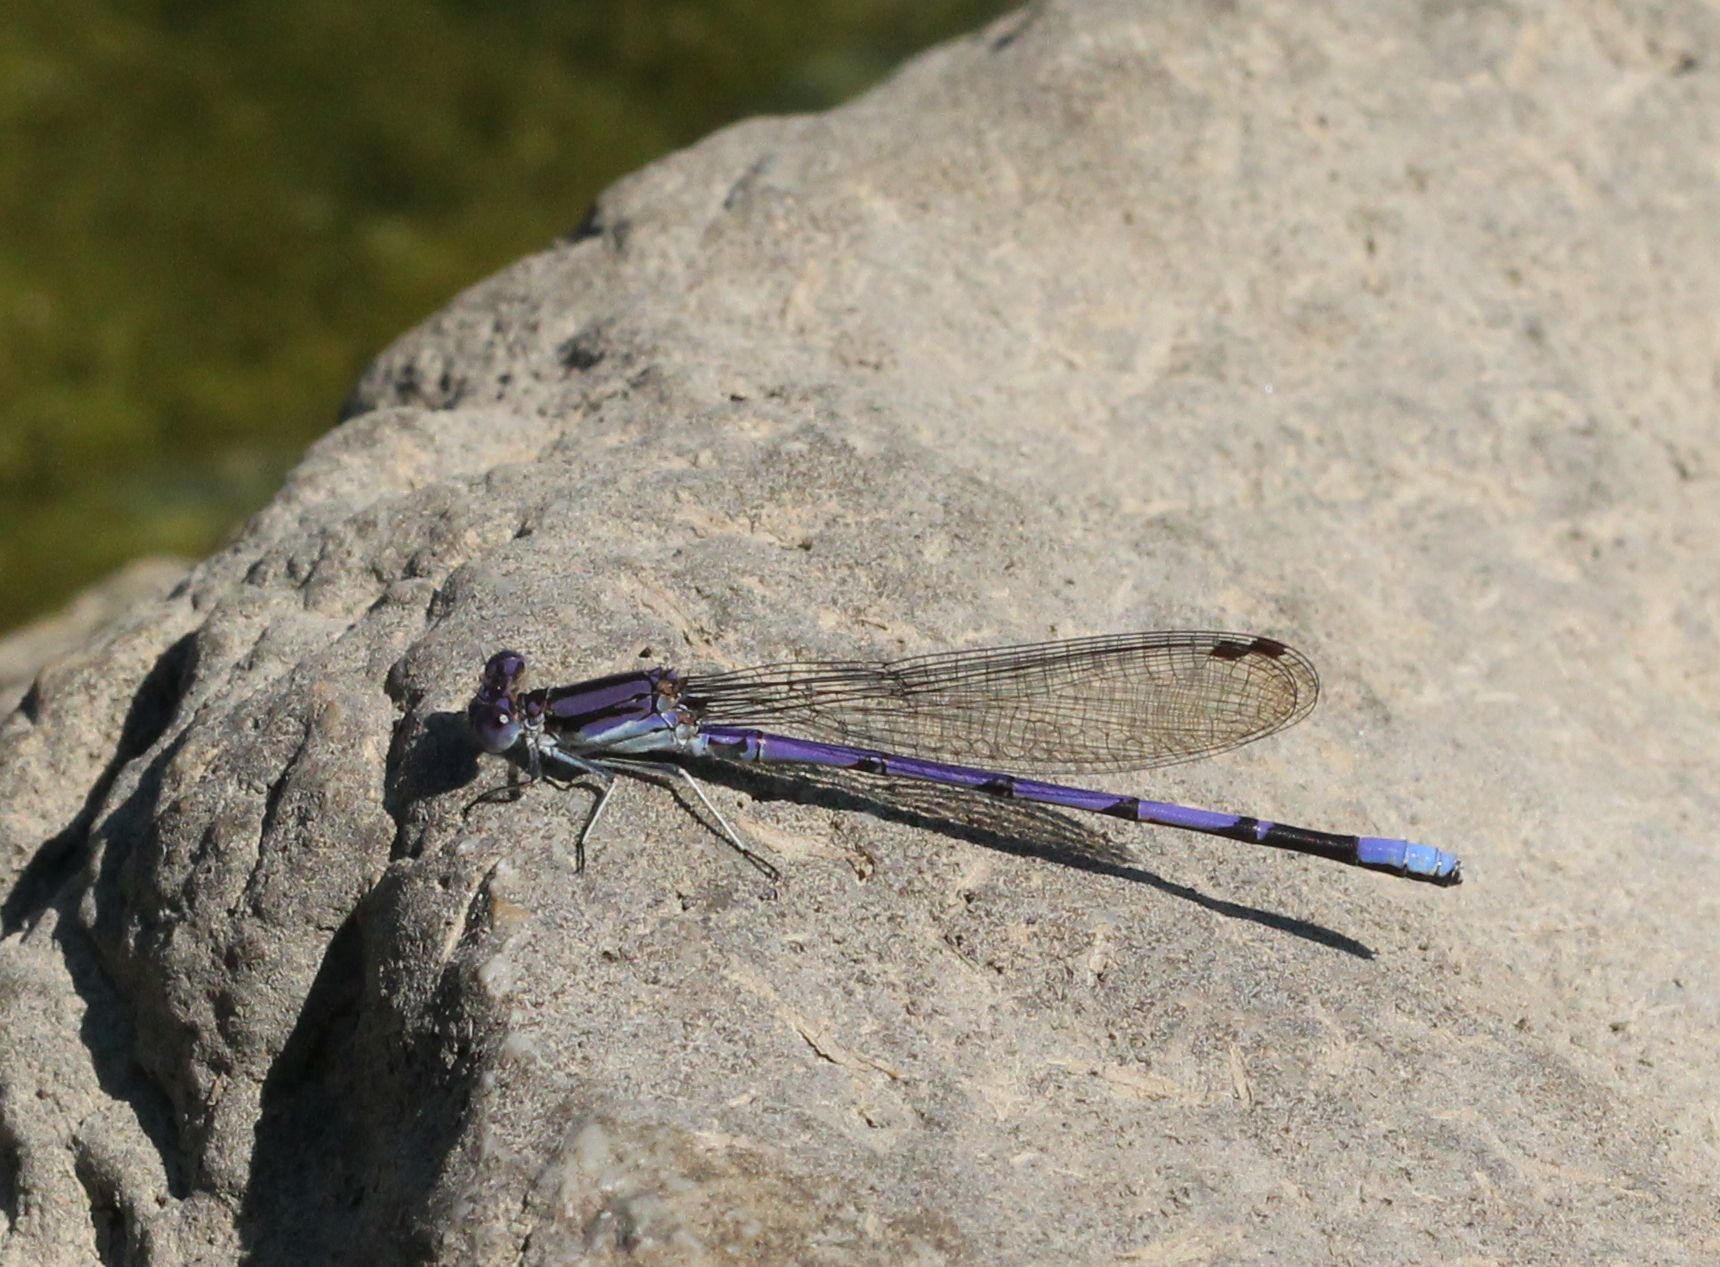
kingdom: Animalia
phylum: Arthropoda
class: Insecta
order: Odonata
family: Coenagrionidae
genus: Argia
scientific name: Argia fumipennis
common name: Variable dancer
